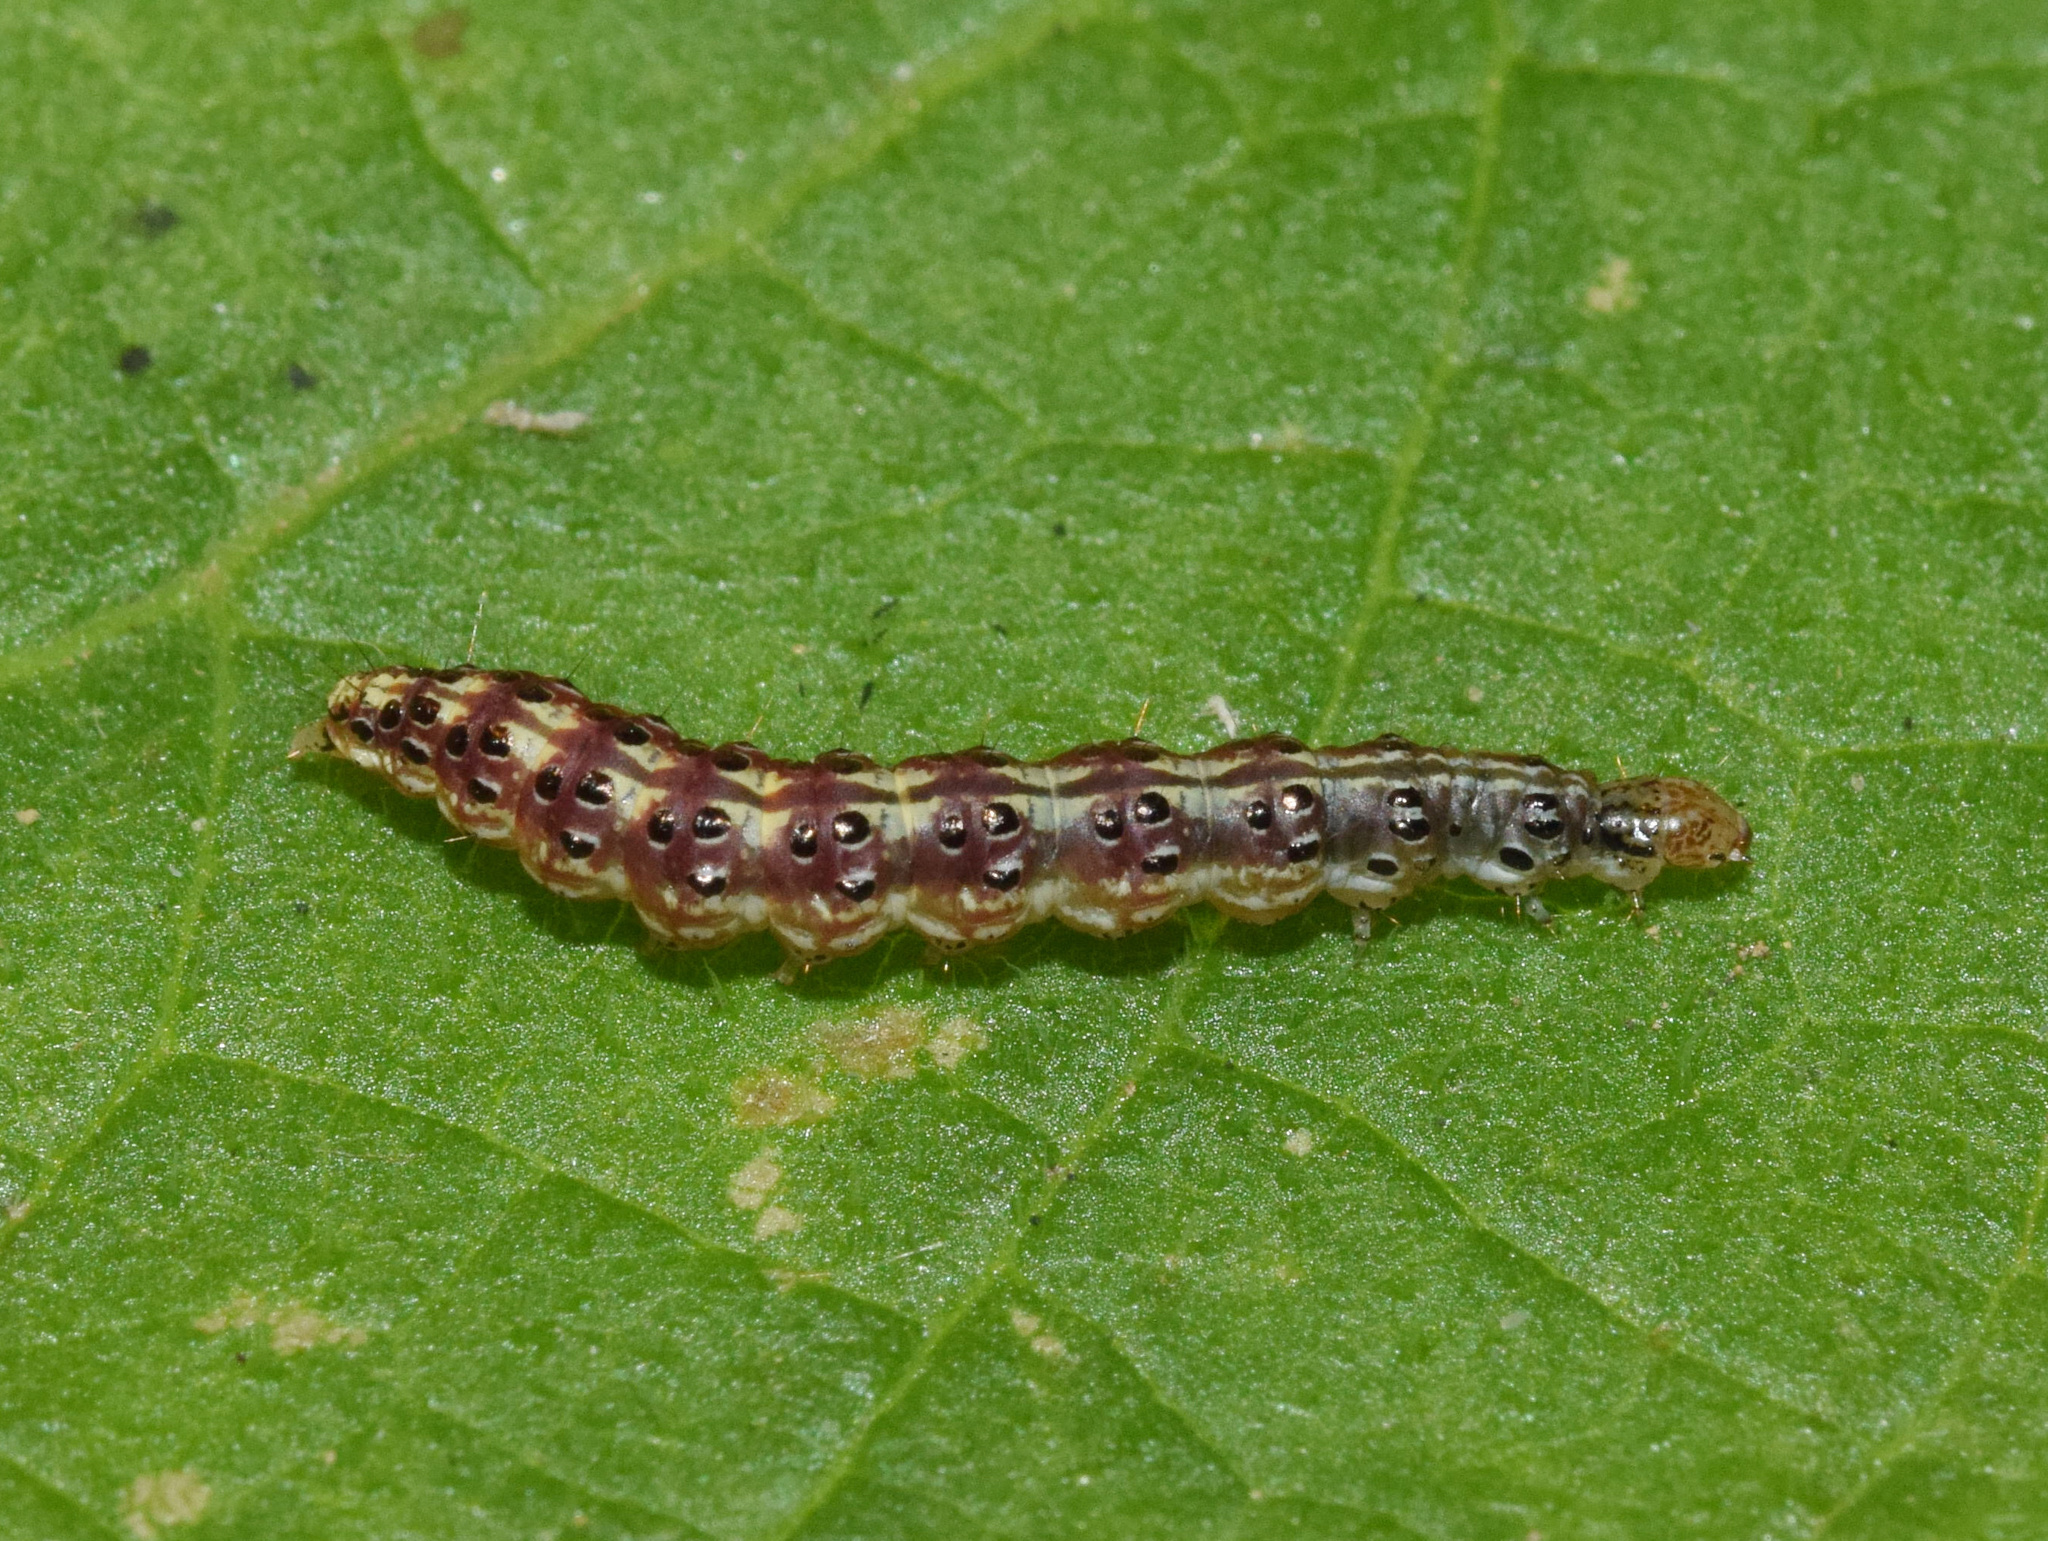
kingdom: Animalia
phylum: Arthropoda
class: Insecta
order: Lepidoptera
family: Crambidae
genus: Pyrausta
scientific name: Pyrausta phoenicealis
